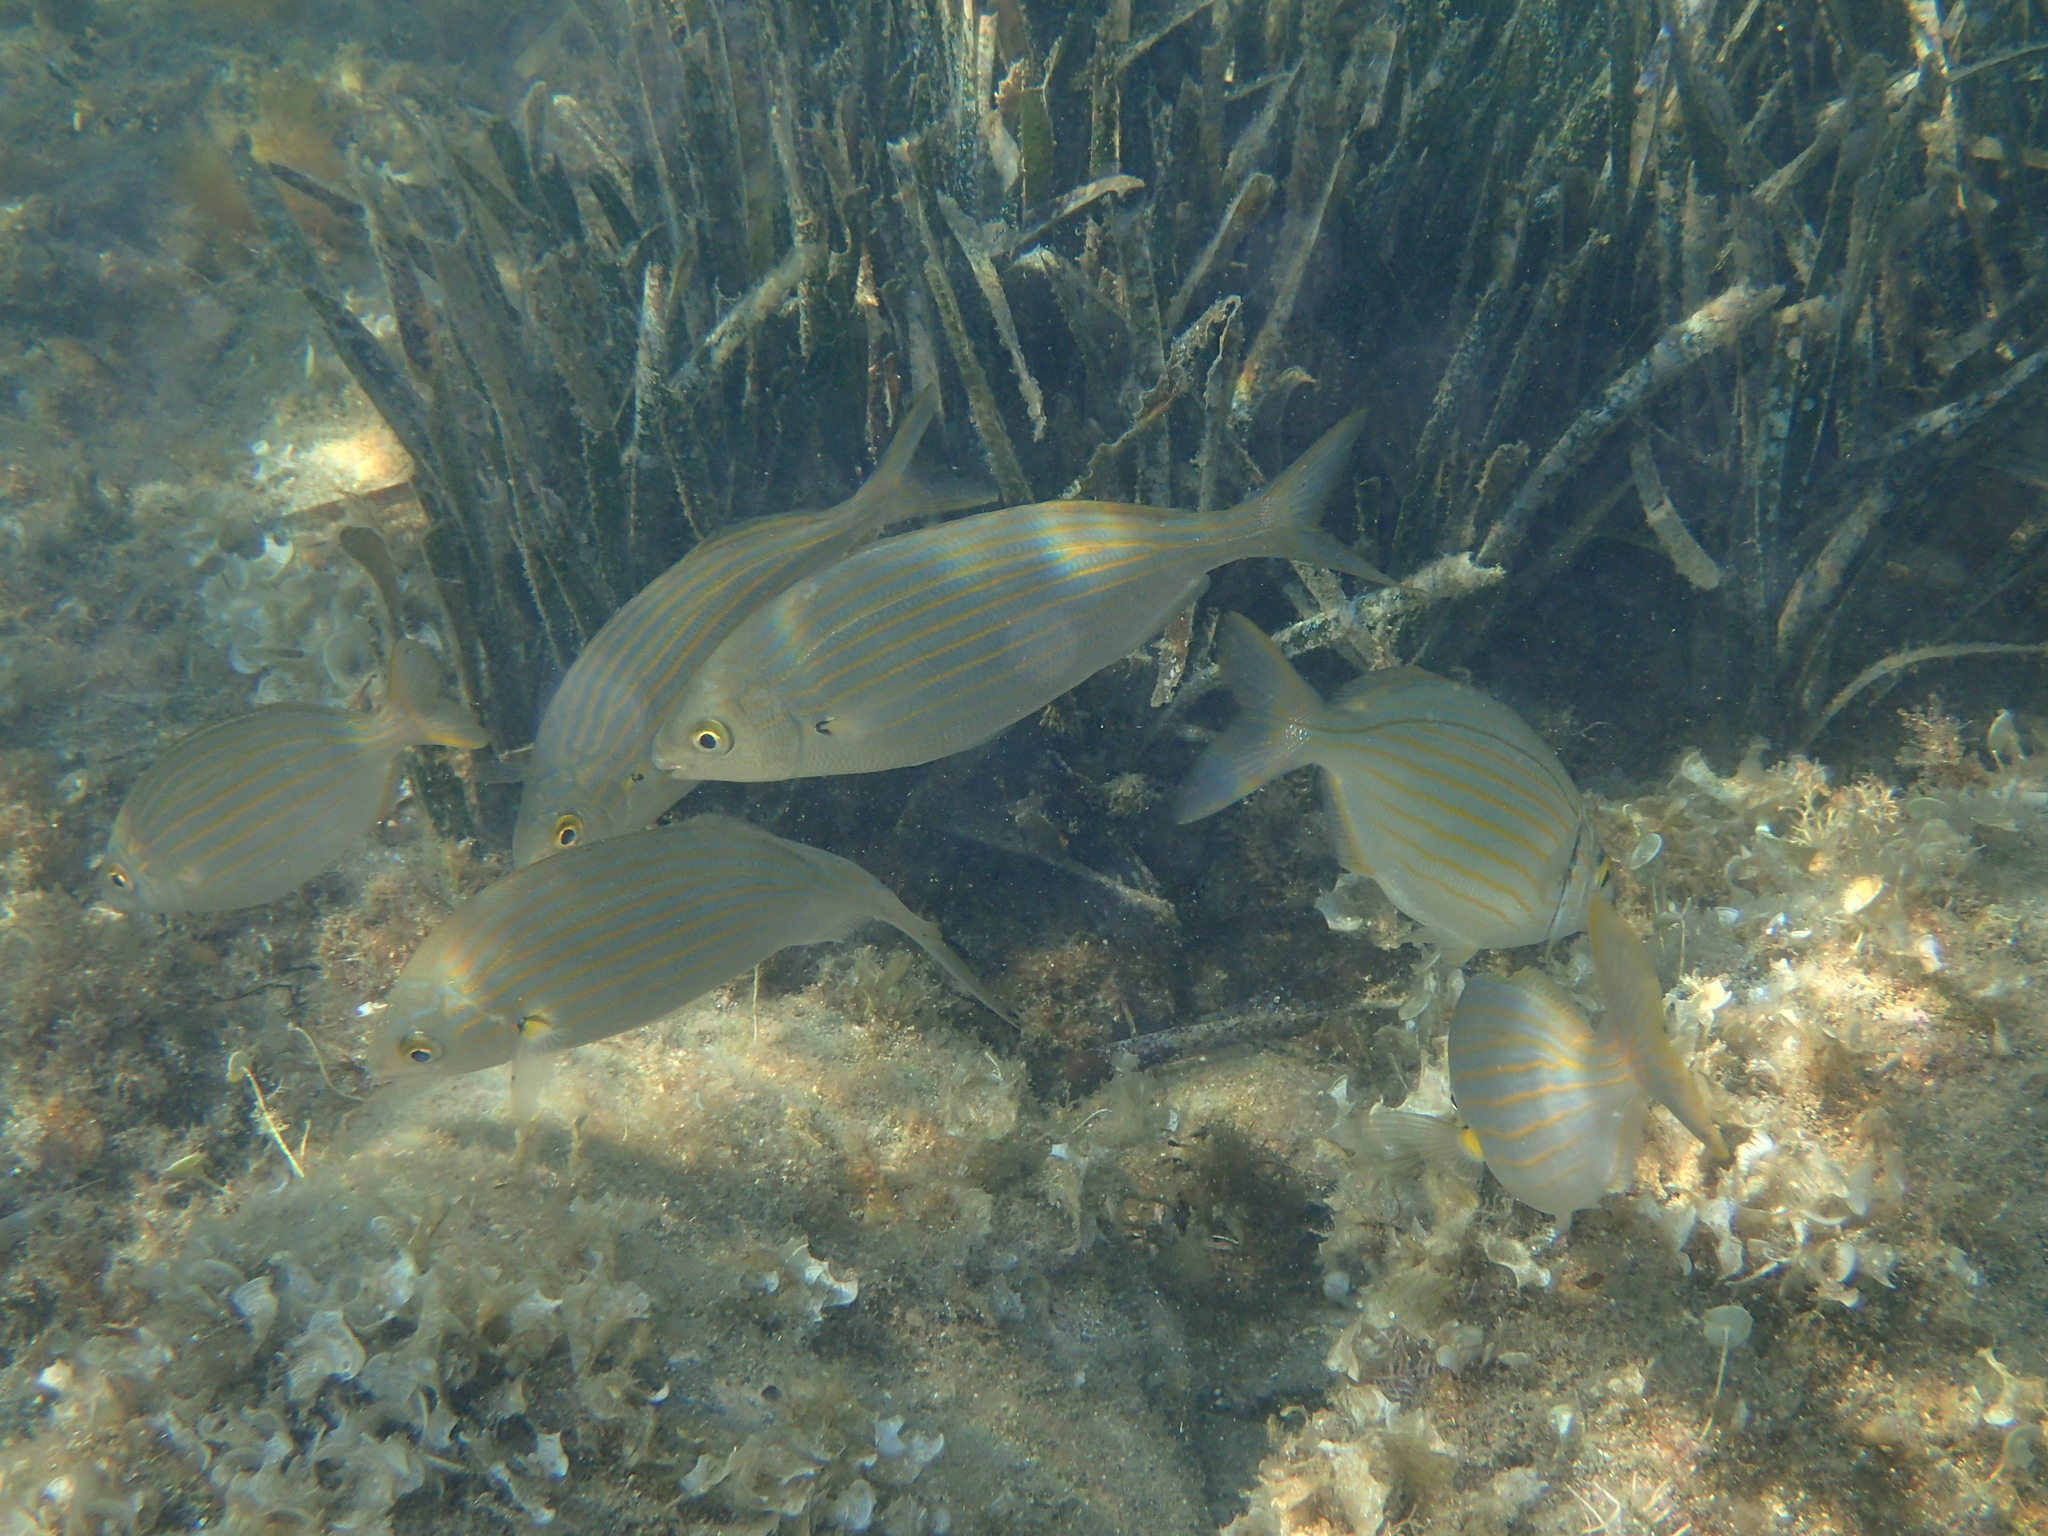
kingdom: Animalia
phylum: Chordata
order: Perciformes
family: Sparidae
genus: Sarpa
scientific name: Sarpa salpa
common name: Salema
